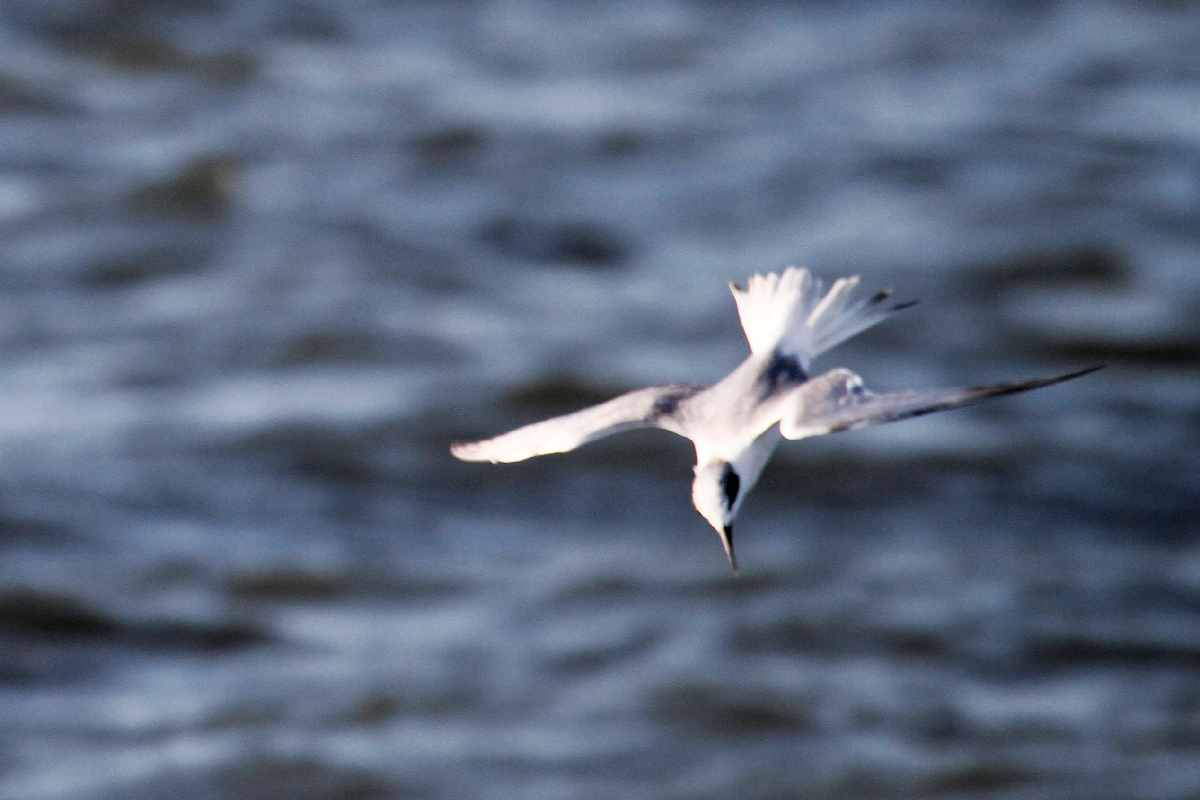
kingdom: Animalia
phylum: Chordata
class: Aves
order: Charadriiformes
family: Laridae
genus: Sterna
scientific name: Sterna forsteri
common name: Forster's tern
